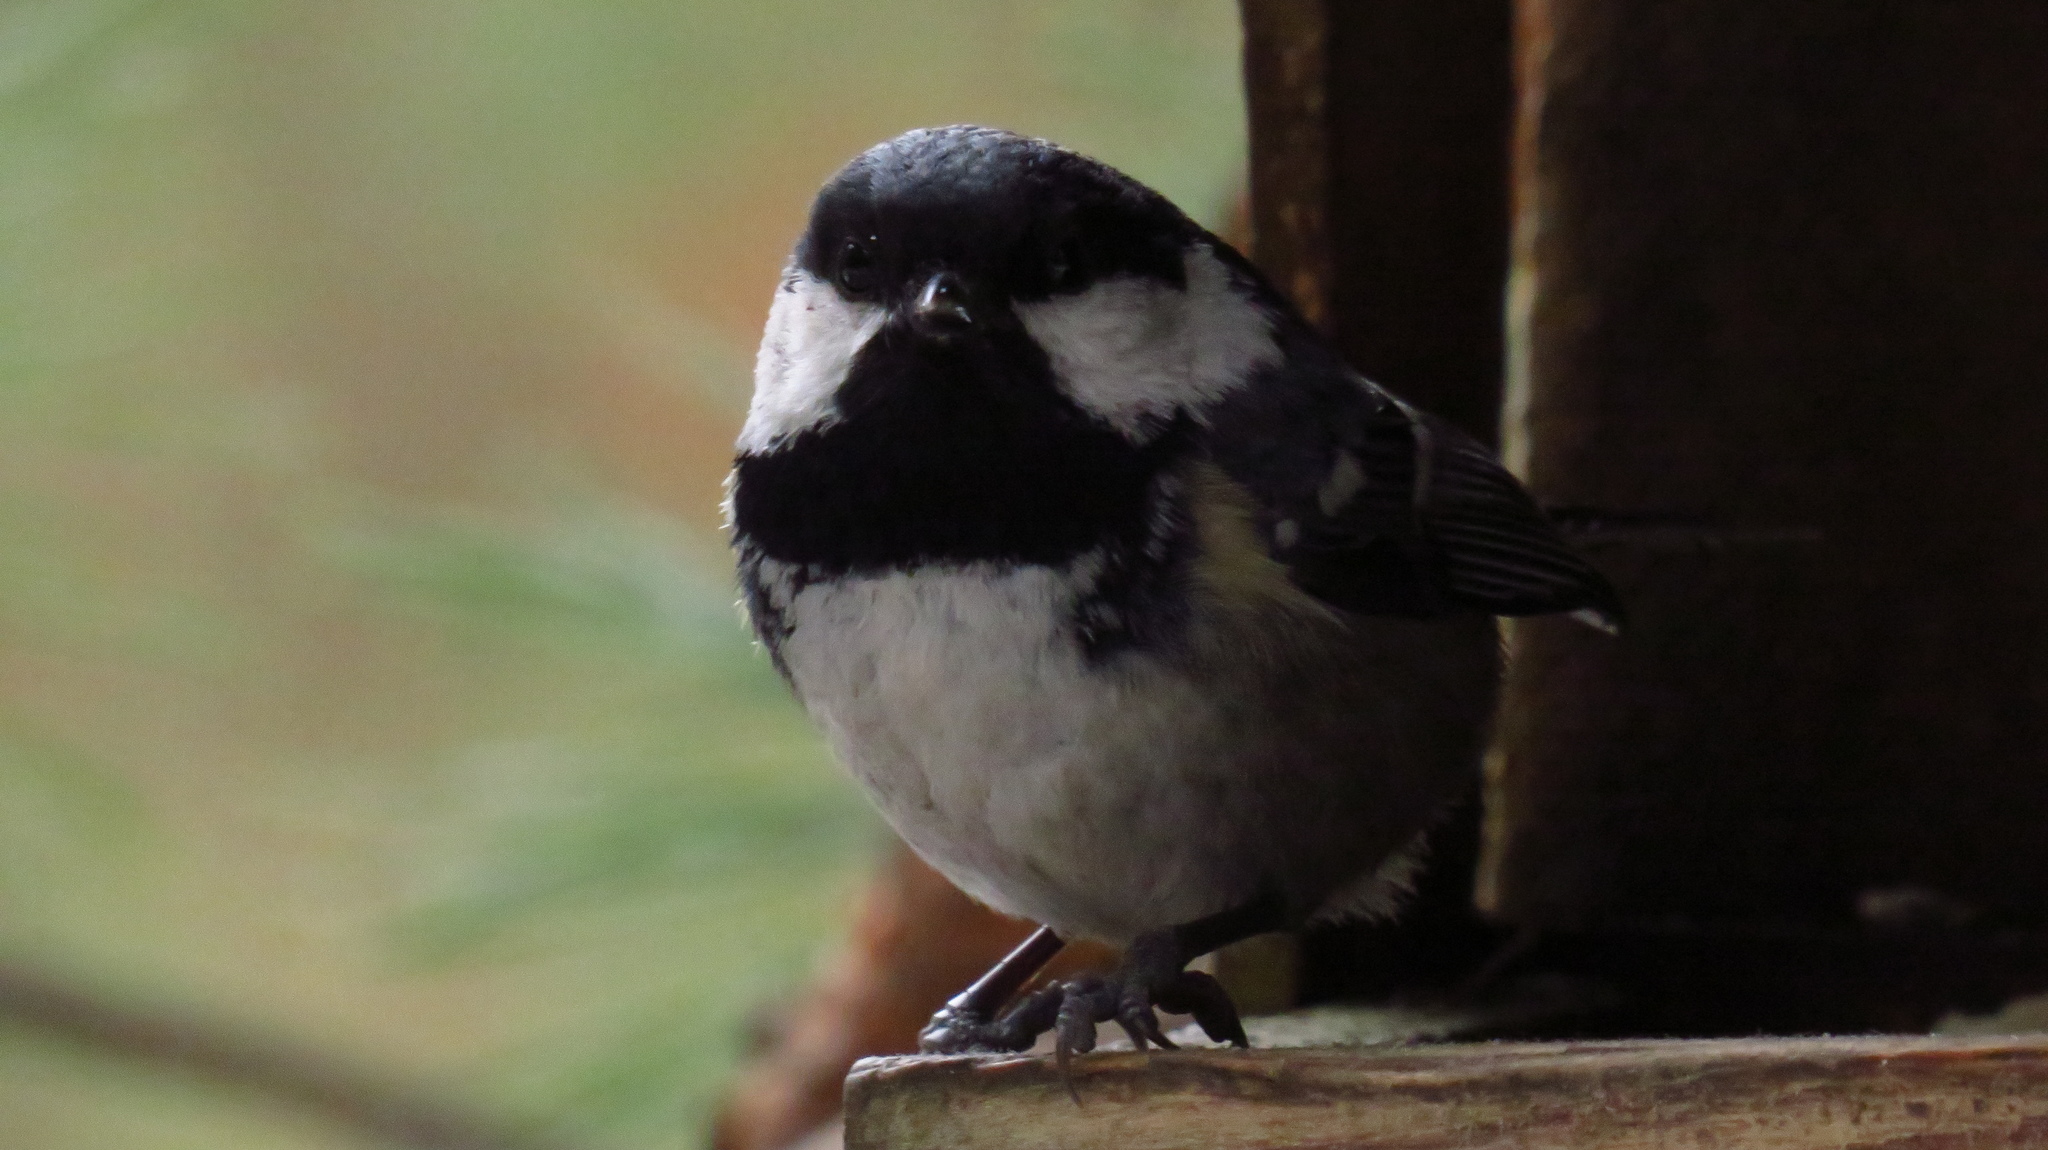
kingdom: Animalia
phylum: Chordata
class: Aves
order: Passeriformes
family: Paridae
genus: Periparus
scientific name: Periparus ater
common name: Coal tit
